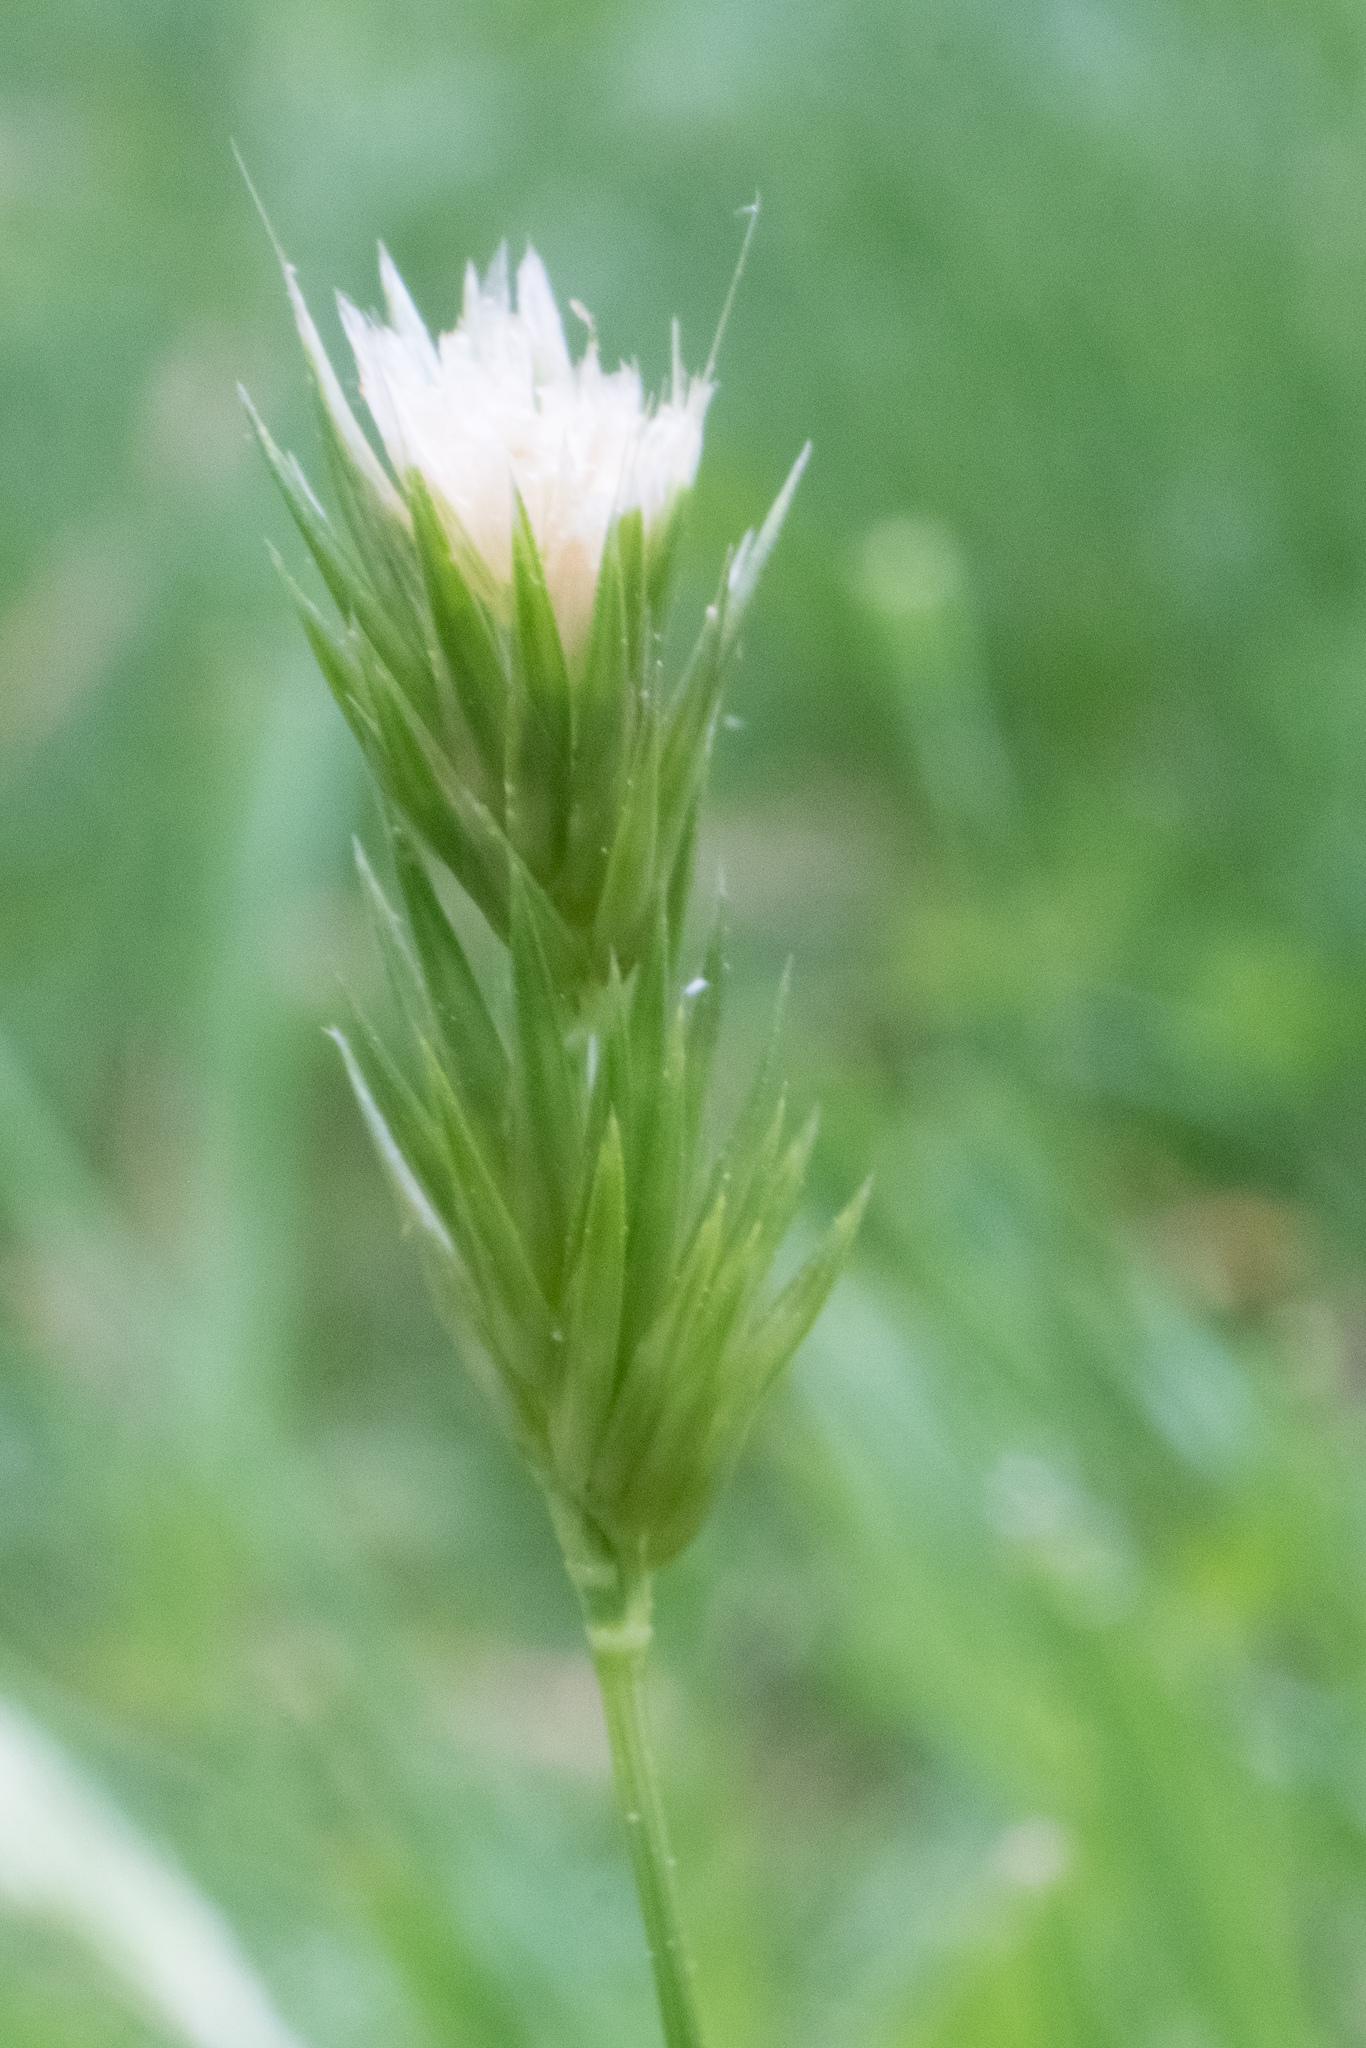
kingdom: Plantae
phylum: Tracheophyta
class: Liliopsida
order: Poales
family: Poaceae
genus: Anthoxanthum
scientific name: Anthoxanthum odoratum
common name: Sweet vernalgrass
